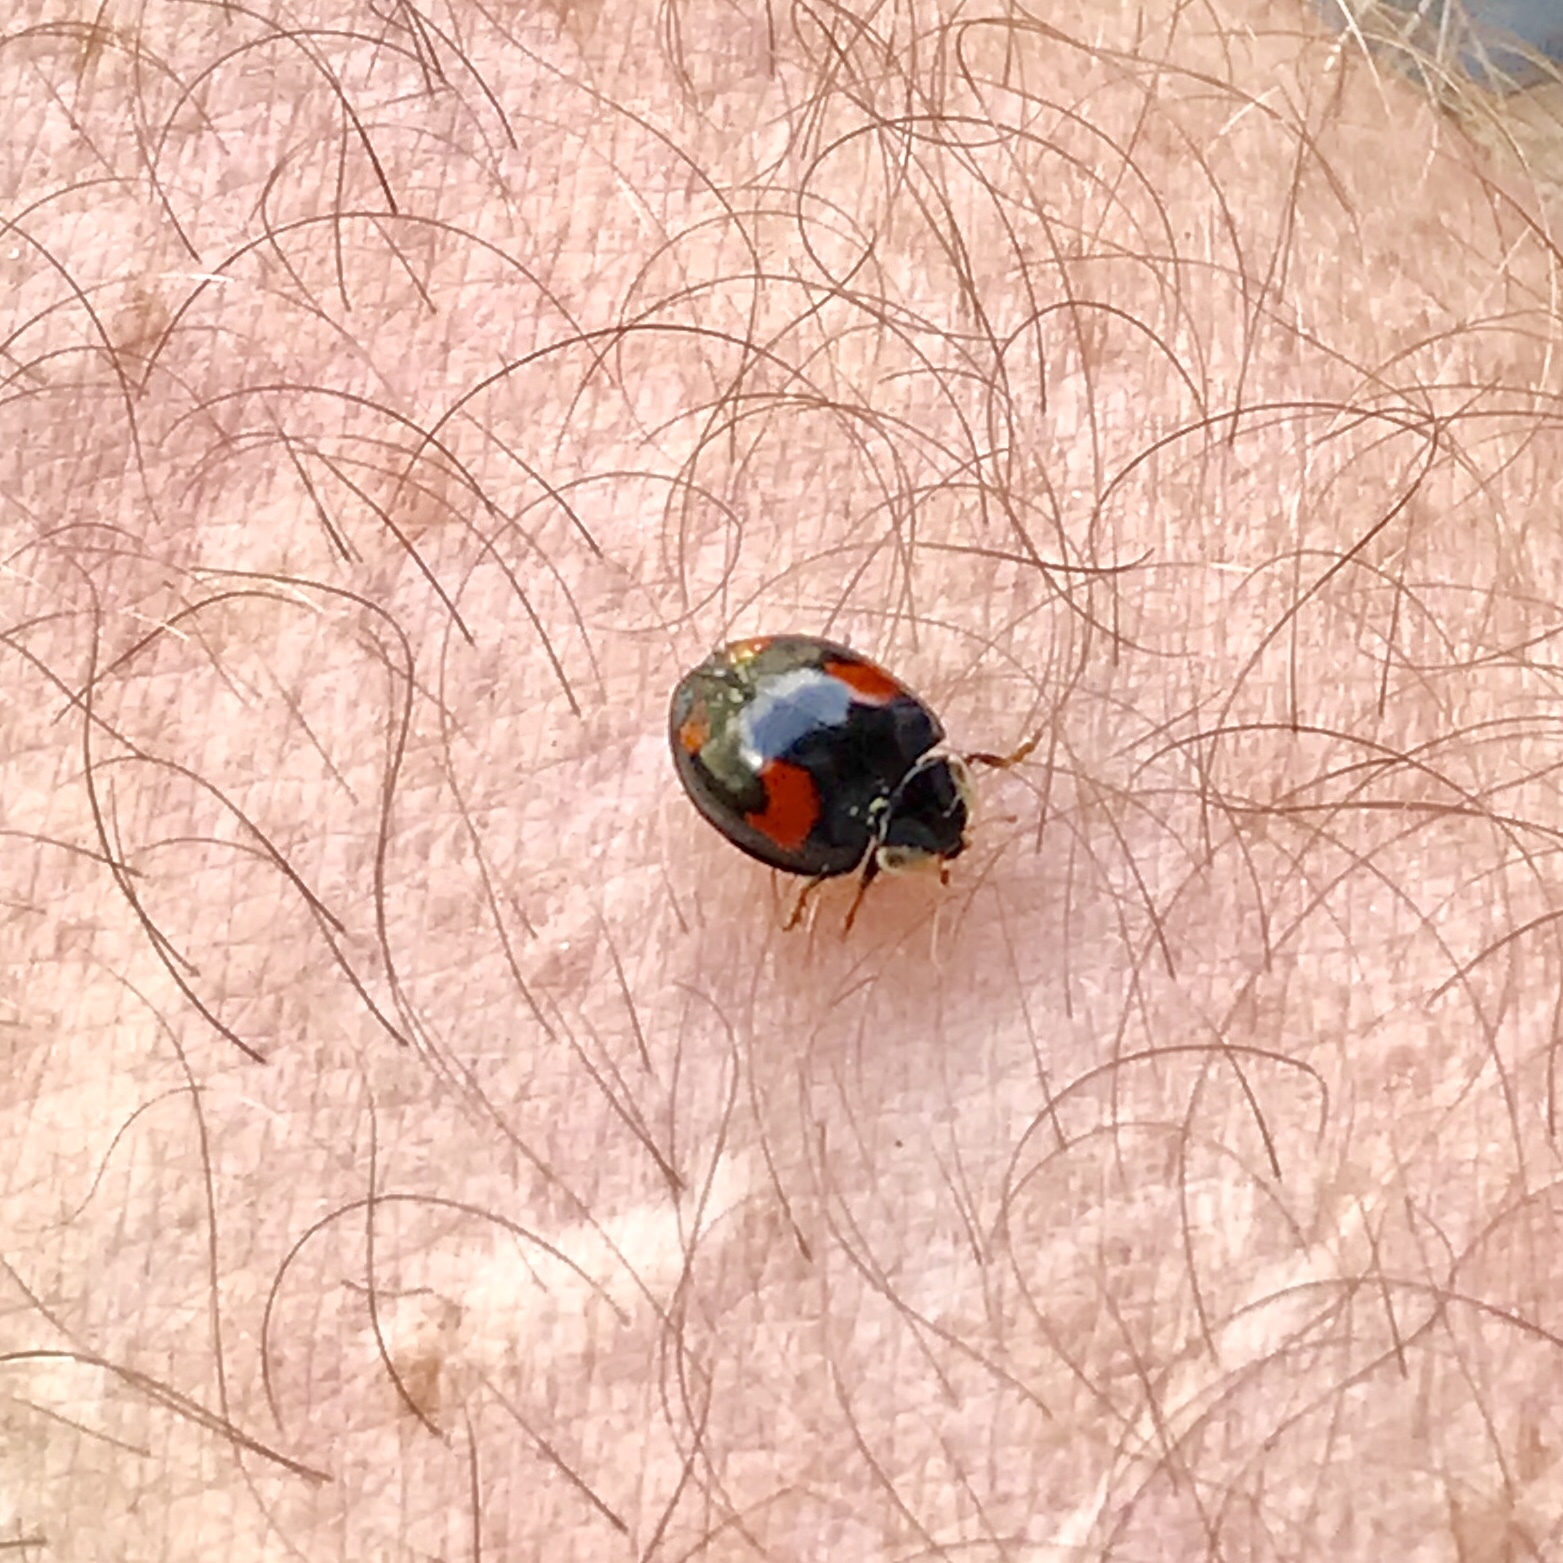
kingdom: Animalia
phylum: Arthropoda
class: Insecta
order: Coleoptera
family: Coccinellidae
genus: Harmonia
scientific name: Harmonia axyridis
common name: Harlequin ladybird
